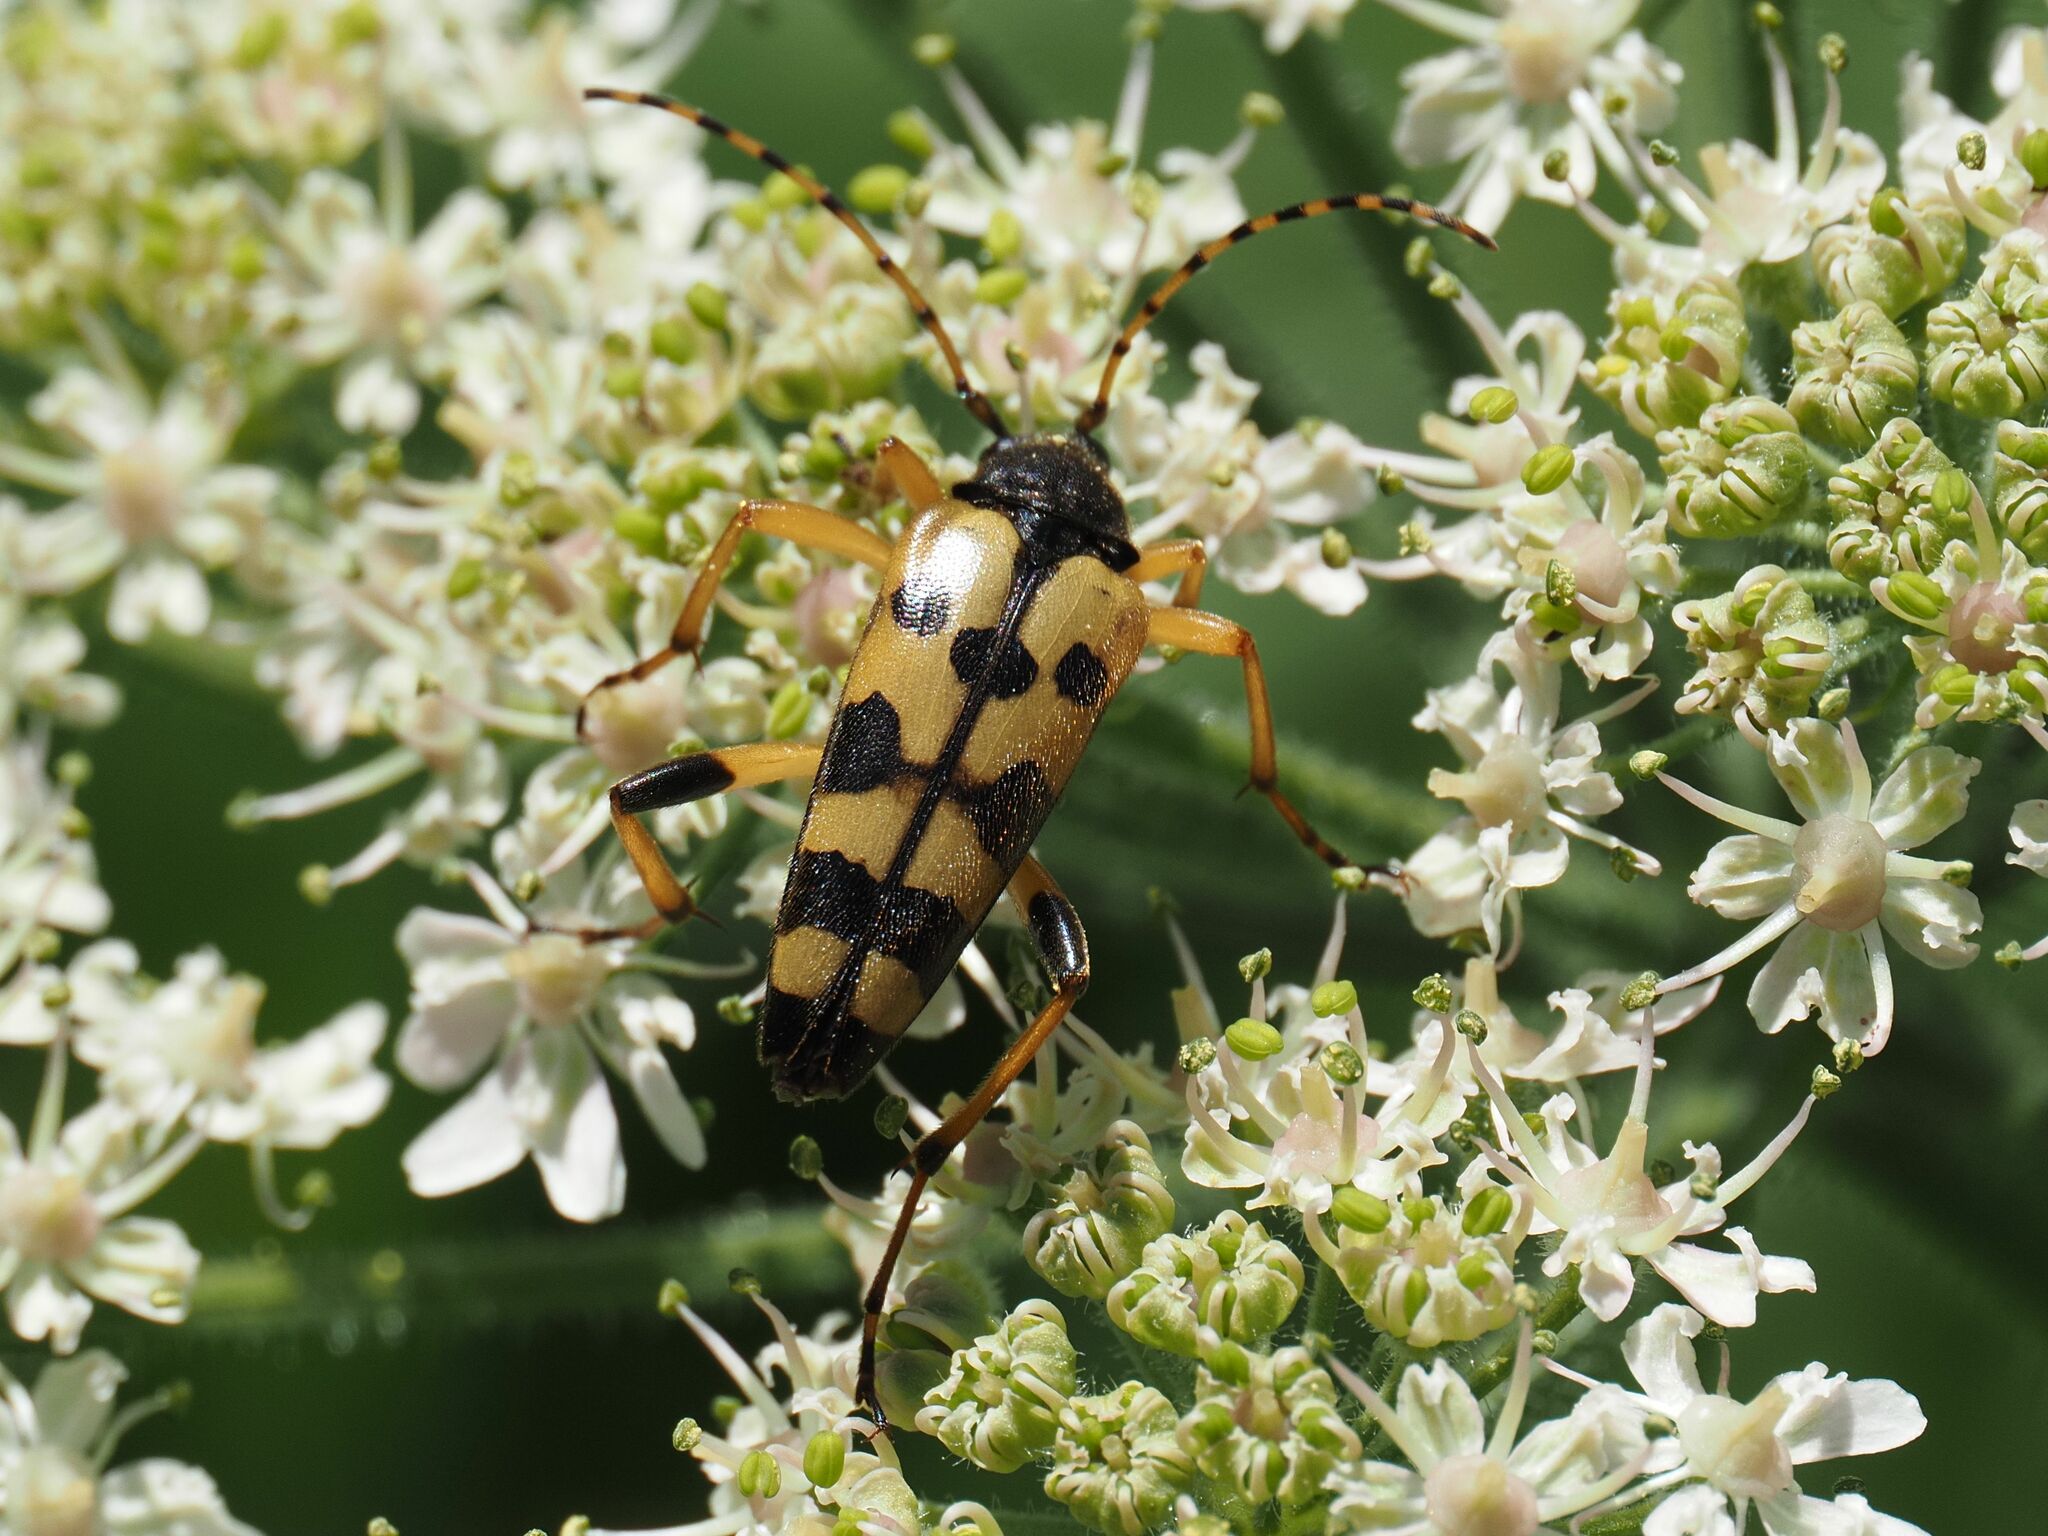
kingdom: Animalia
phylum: Arthropoda
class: Insecta
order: Coleoptera
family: Cerambycidae
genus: Rutpela
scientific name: Rutpela maculata
